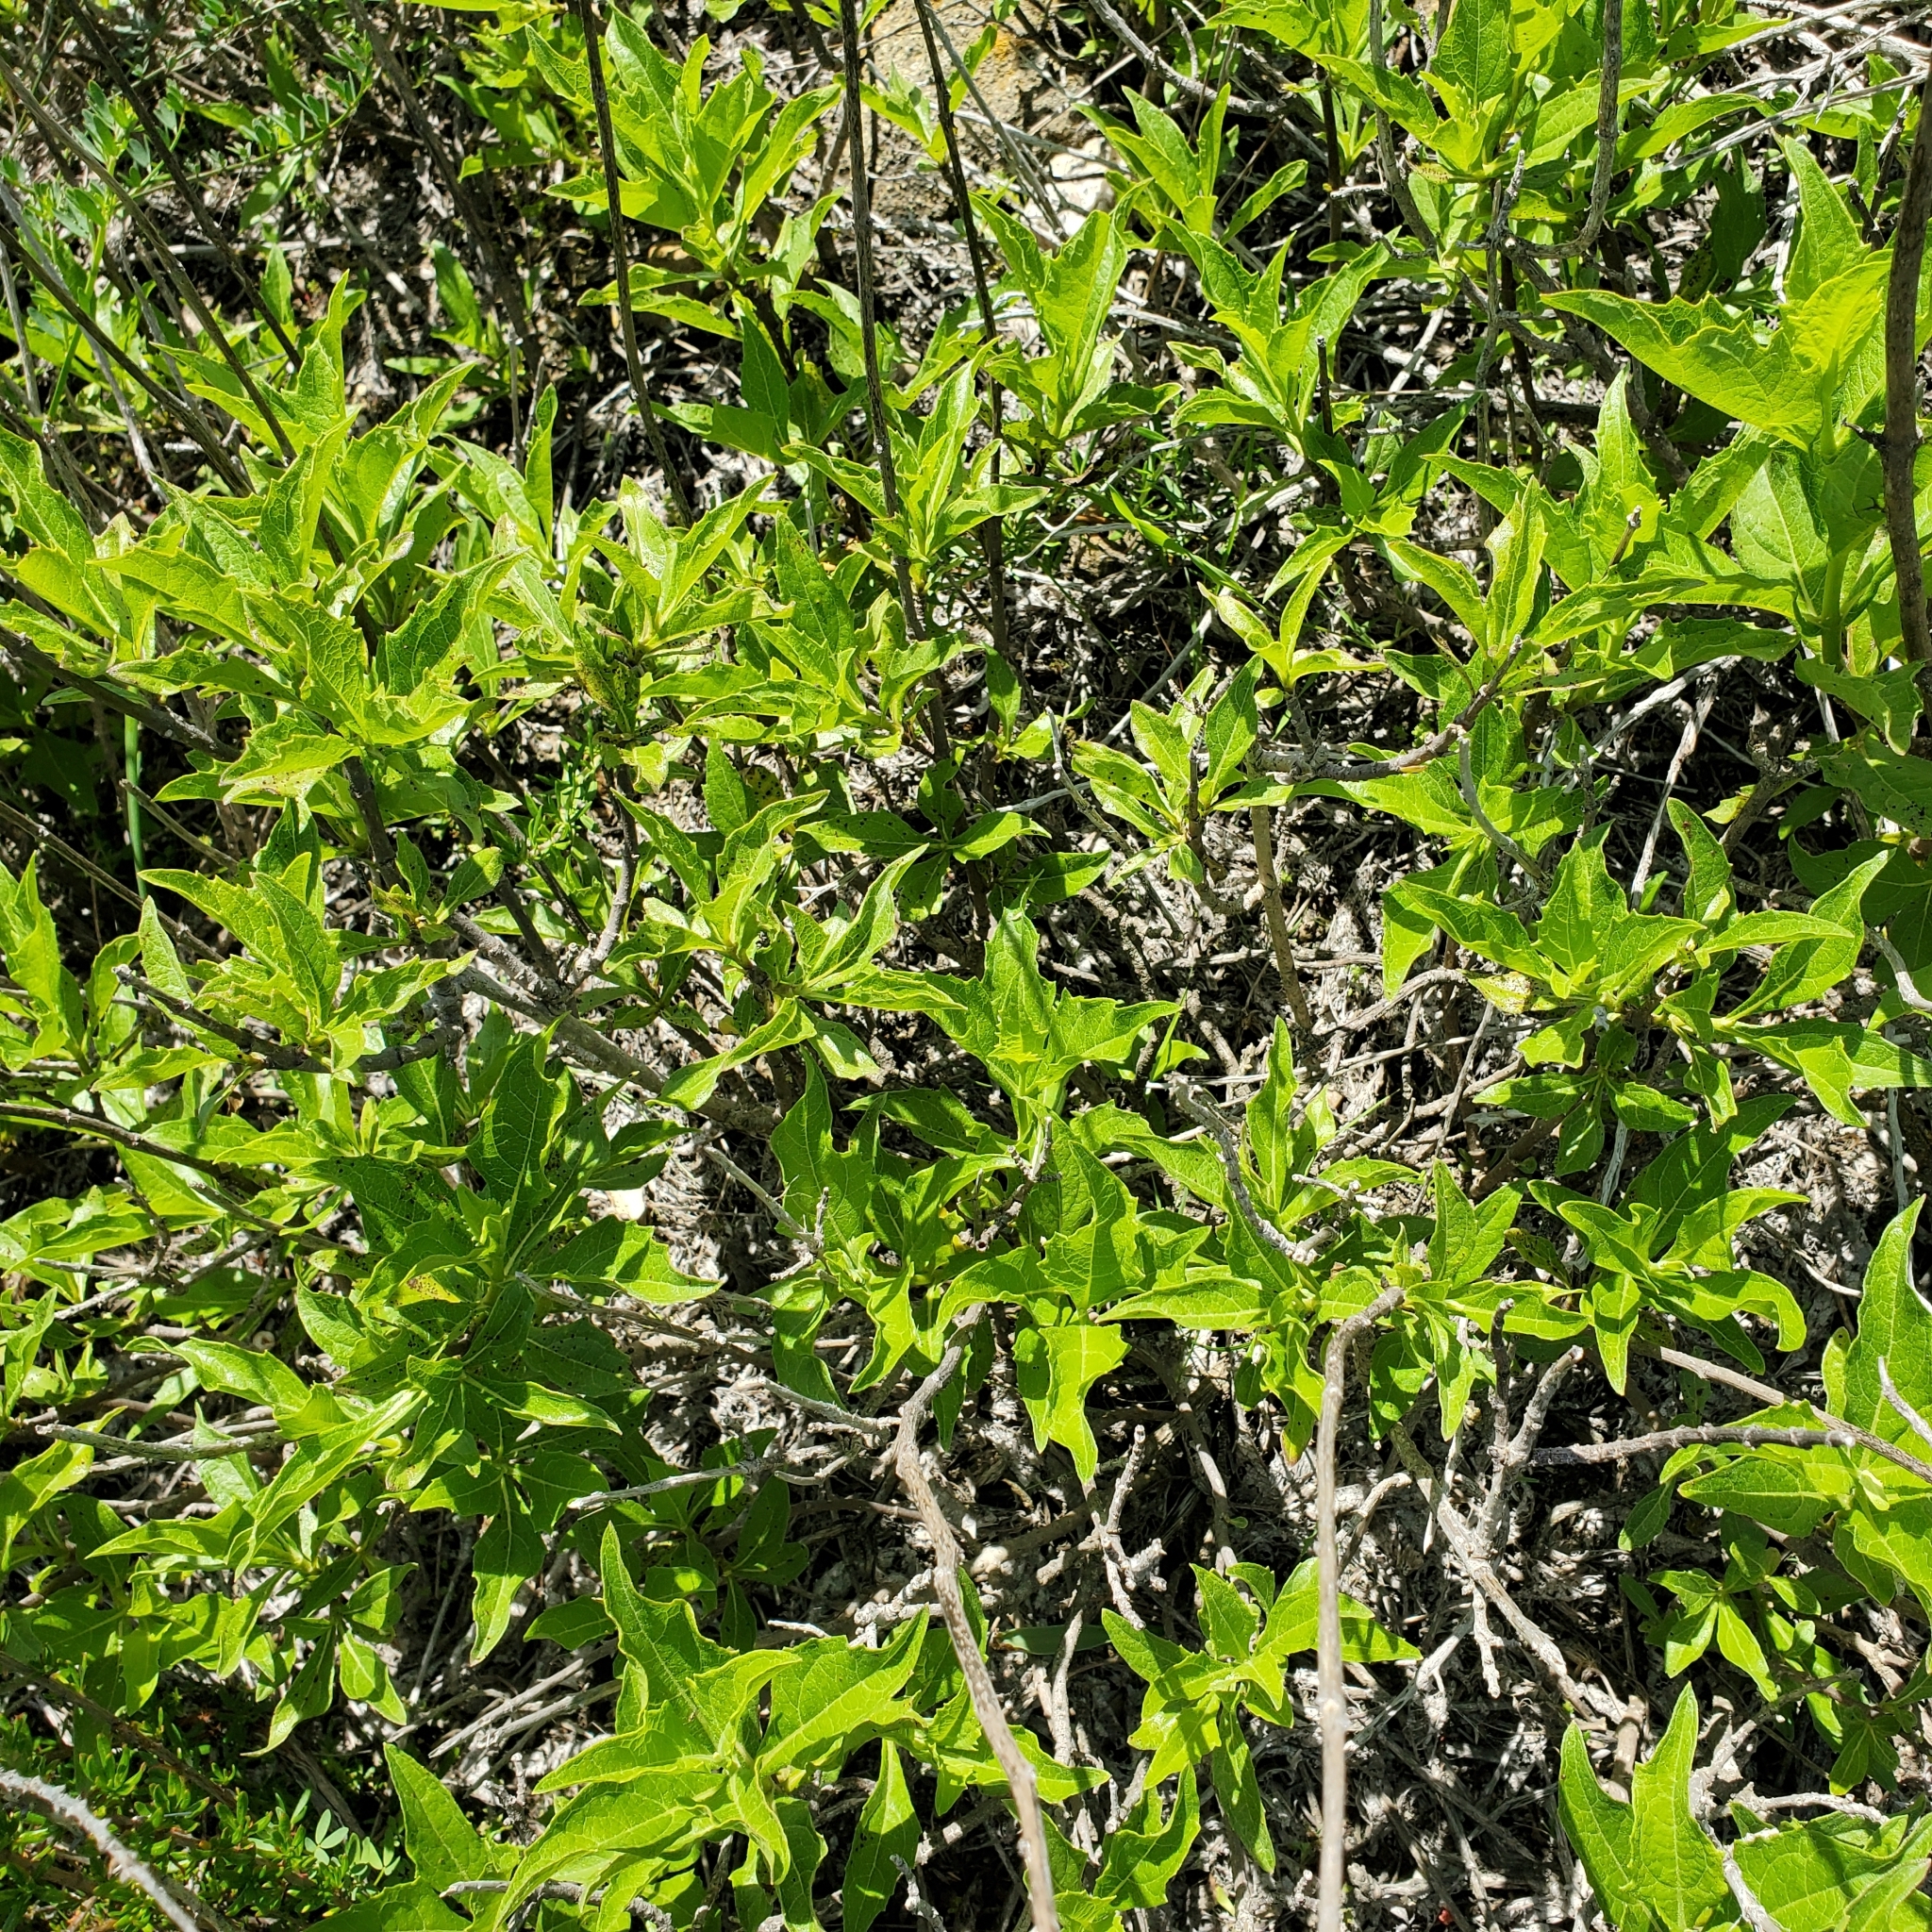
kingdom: Plantae
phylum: Tracheophyta
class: Magnoliopsida
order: Asterales
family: Asteraceae
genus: Verbesina
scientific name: Verbesina dissita
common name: Big-leaf crownbeard
